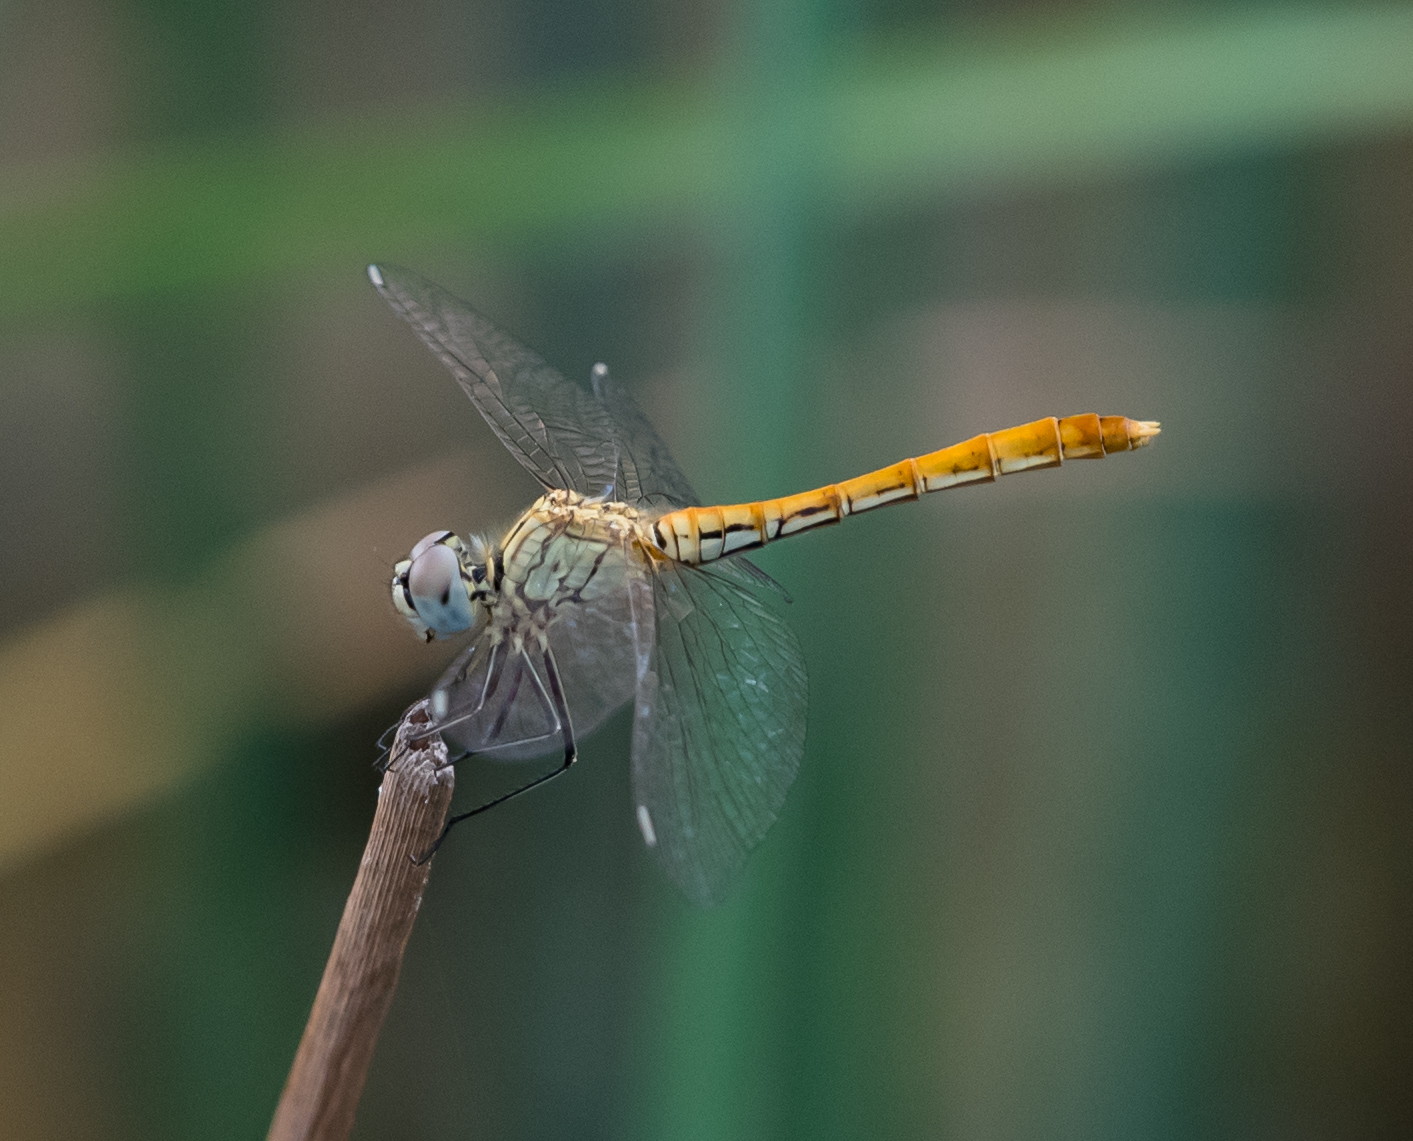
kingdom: Animalia
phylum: Arthropoda
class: Insecta
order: Odonata
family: Libellulidae
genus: Sympetrum
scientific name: Sympetrum tibiale
